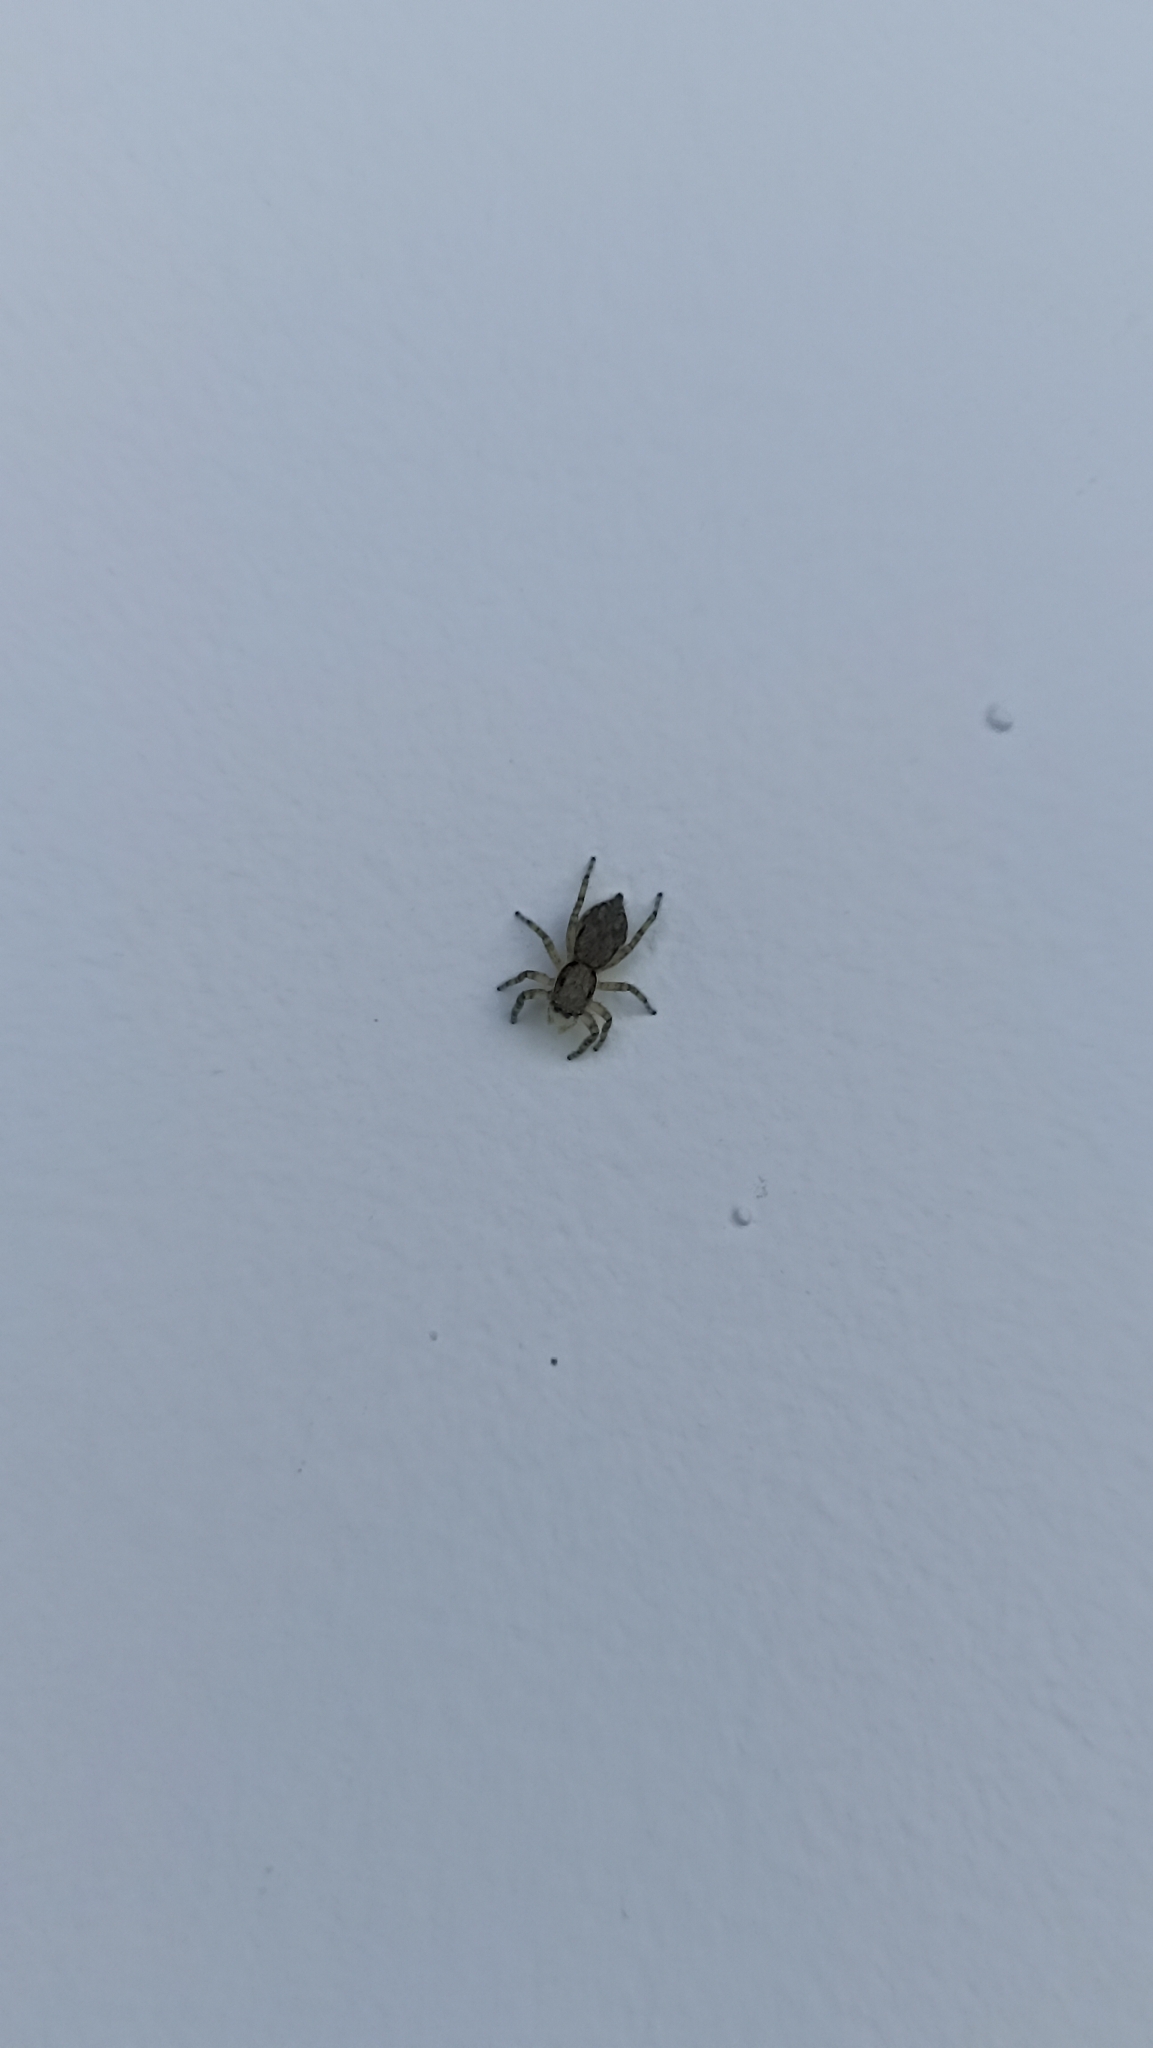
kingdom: Animalia
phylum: Arthropoda
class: Arachnida
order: Araneae
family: Salticidae
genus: Menemerus
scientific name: Menemerus bivittatus
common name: Gray wall jumper
